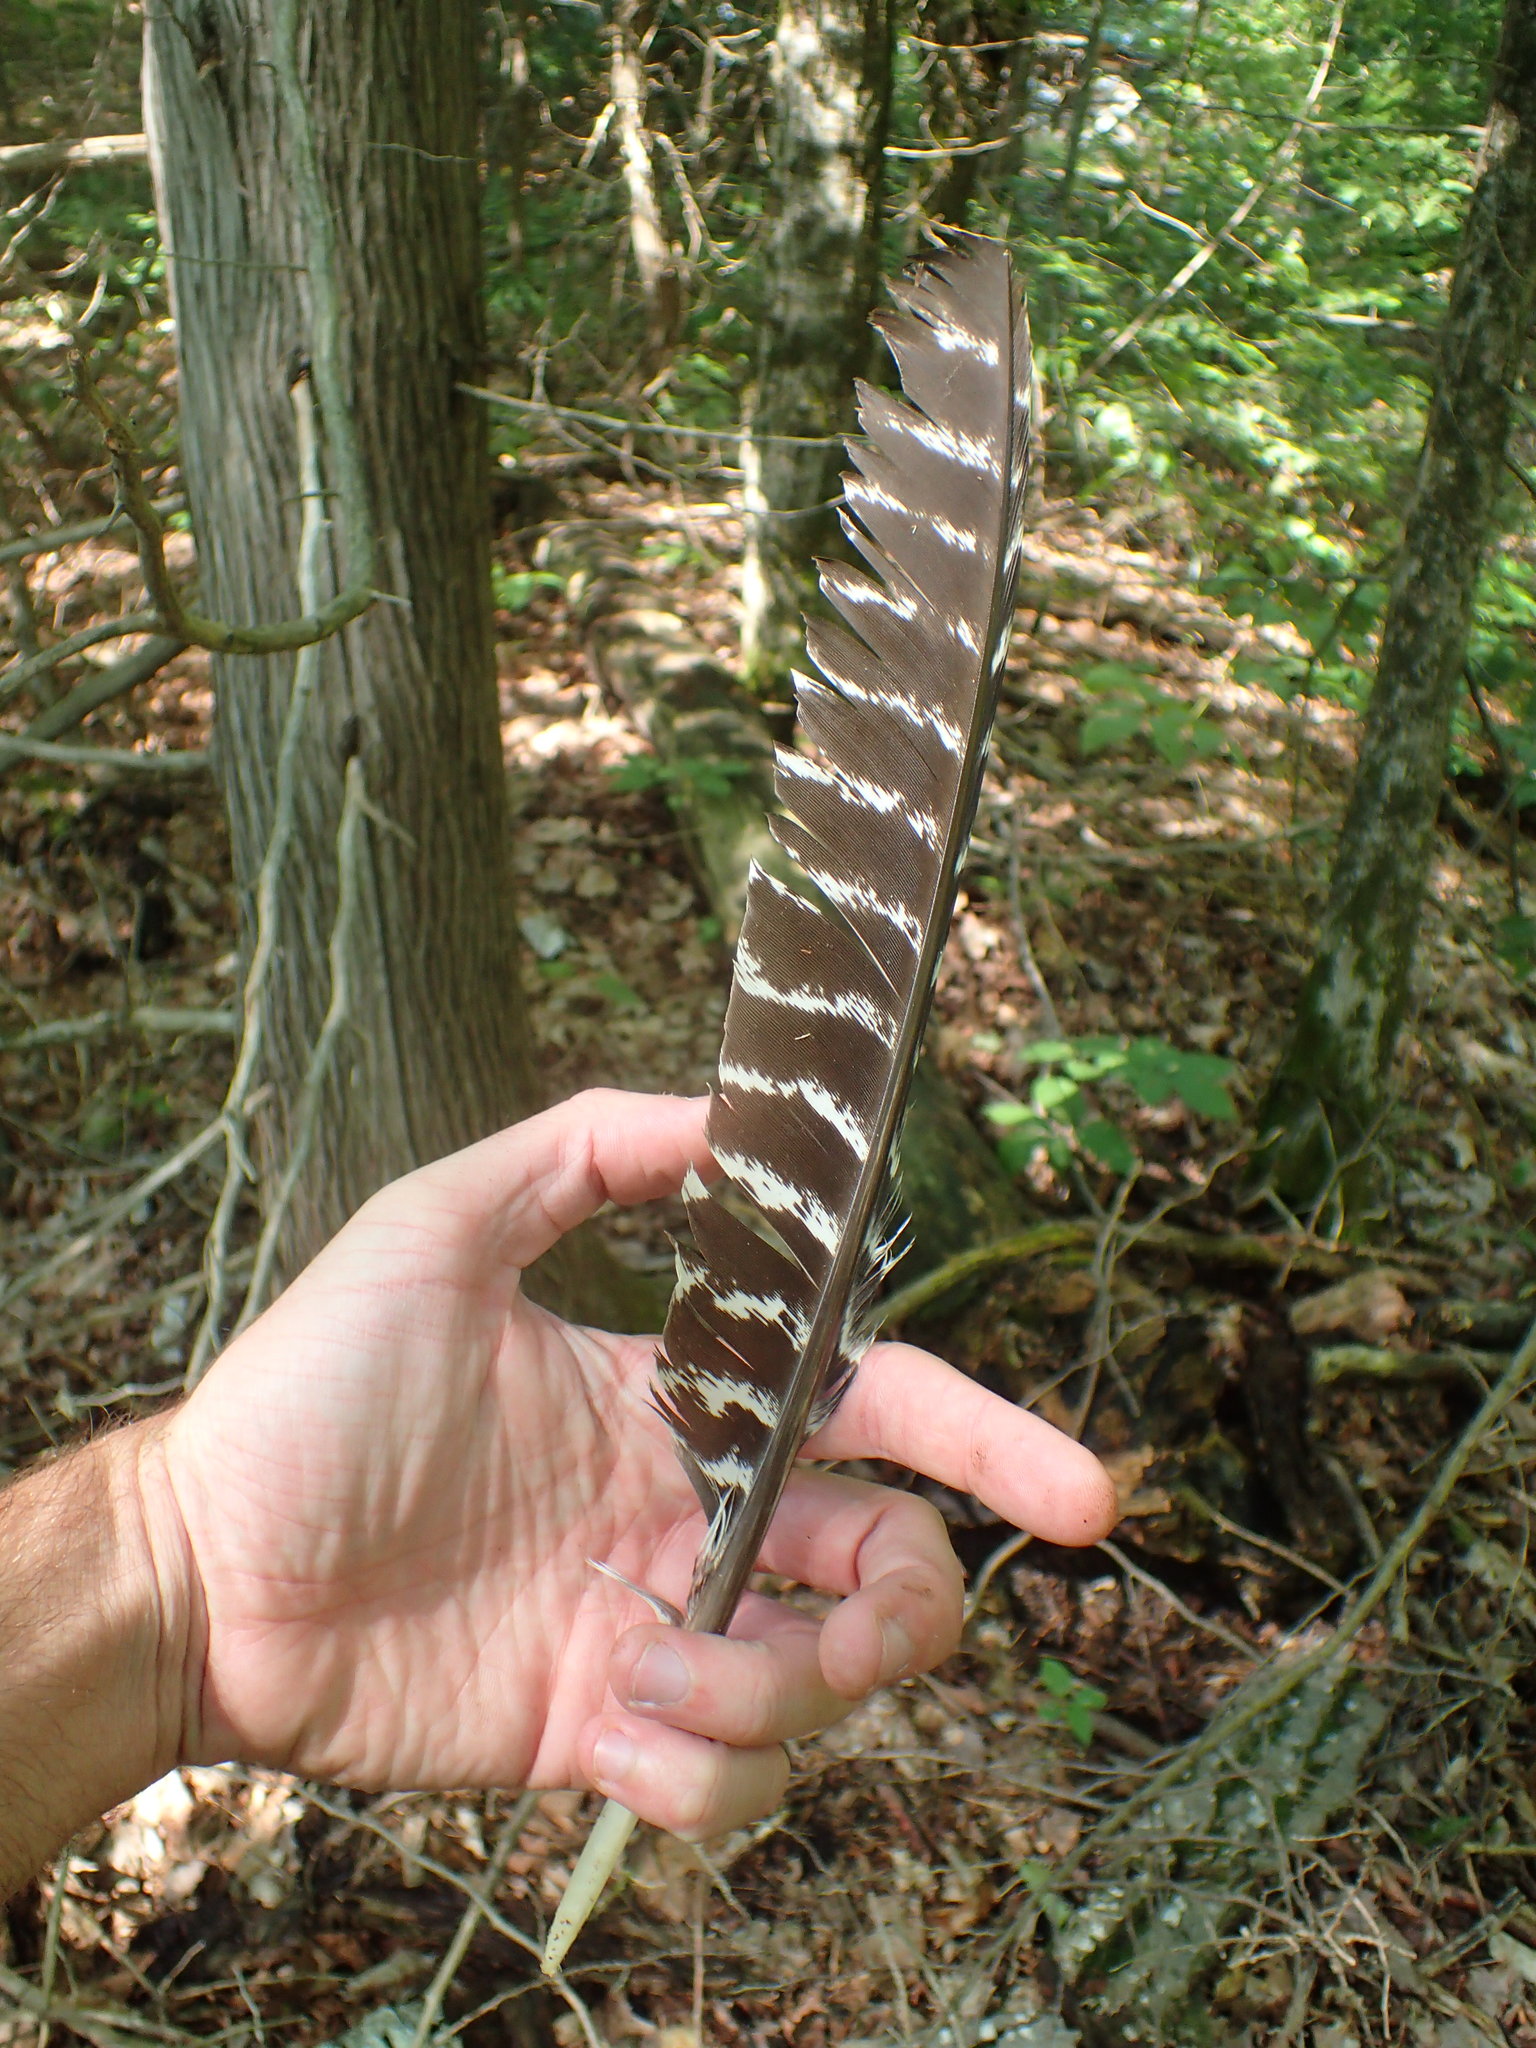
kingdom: Animalia
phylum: Chordata
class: Aves
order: Galliformes
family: Phasianidae
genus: Meleagris
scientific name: Meleagris gallopavo
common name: Wild turkey
